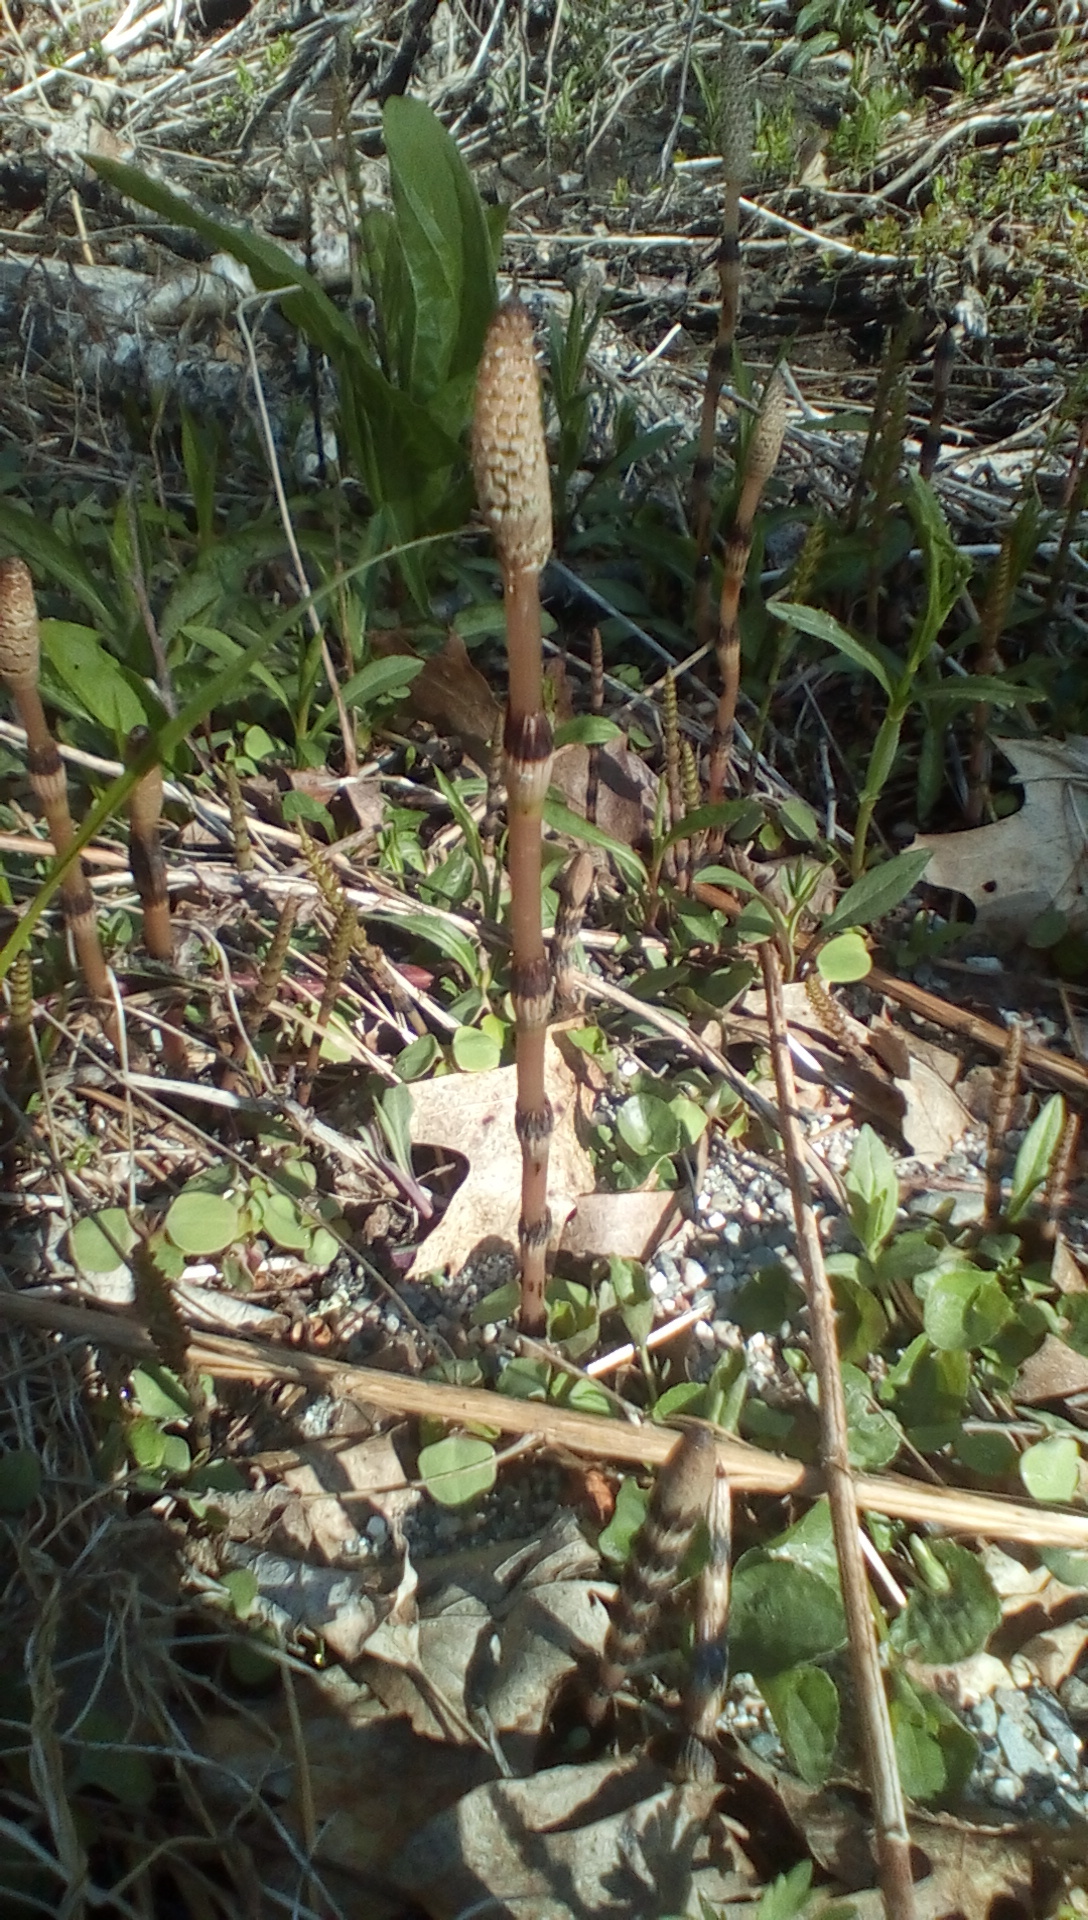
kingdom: Plantae
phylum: Tracheophyta
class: Polypodiopsida
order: Equisetales
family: Equisetaceae
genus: Equisetum
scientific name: Equisetum arvense
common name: Field horsetail
